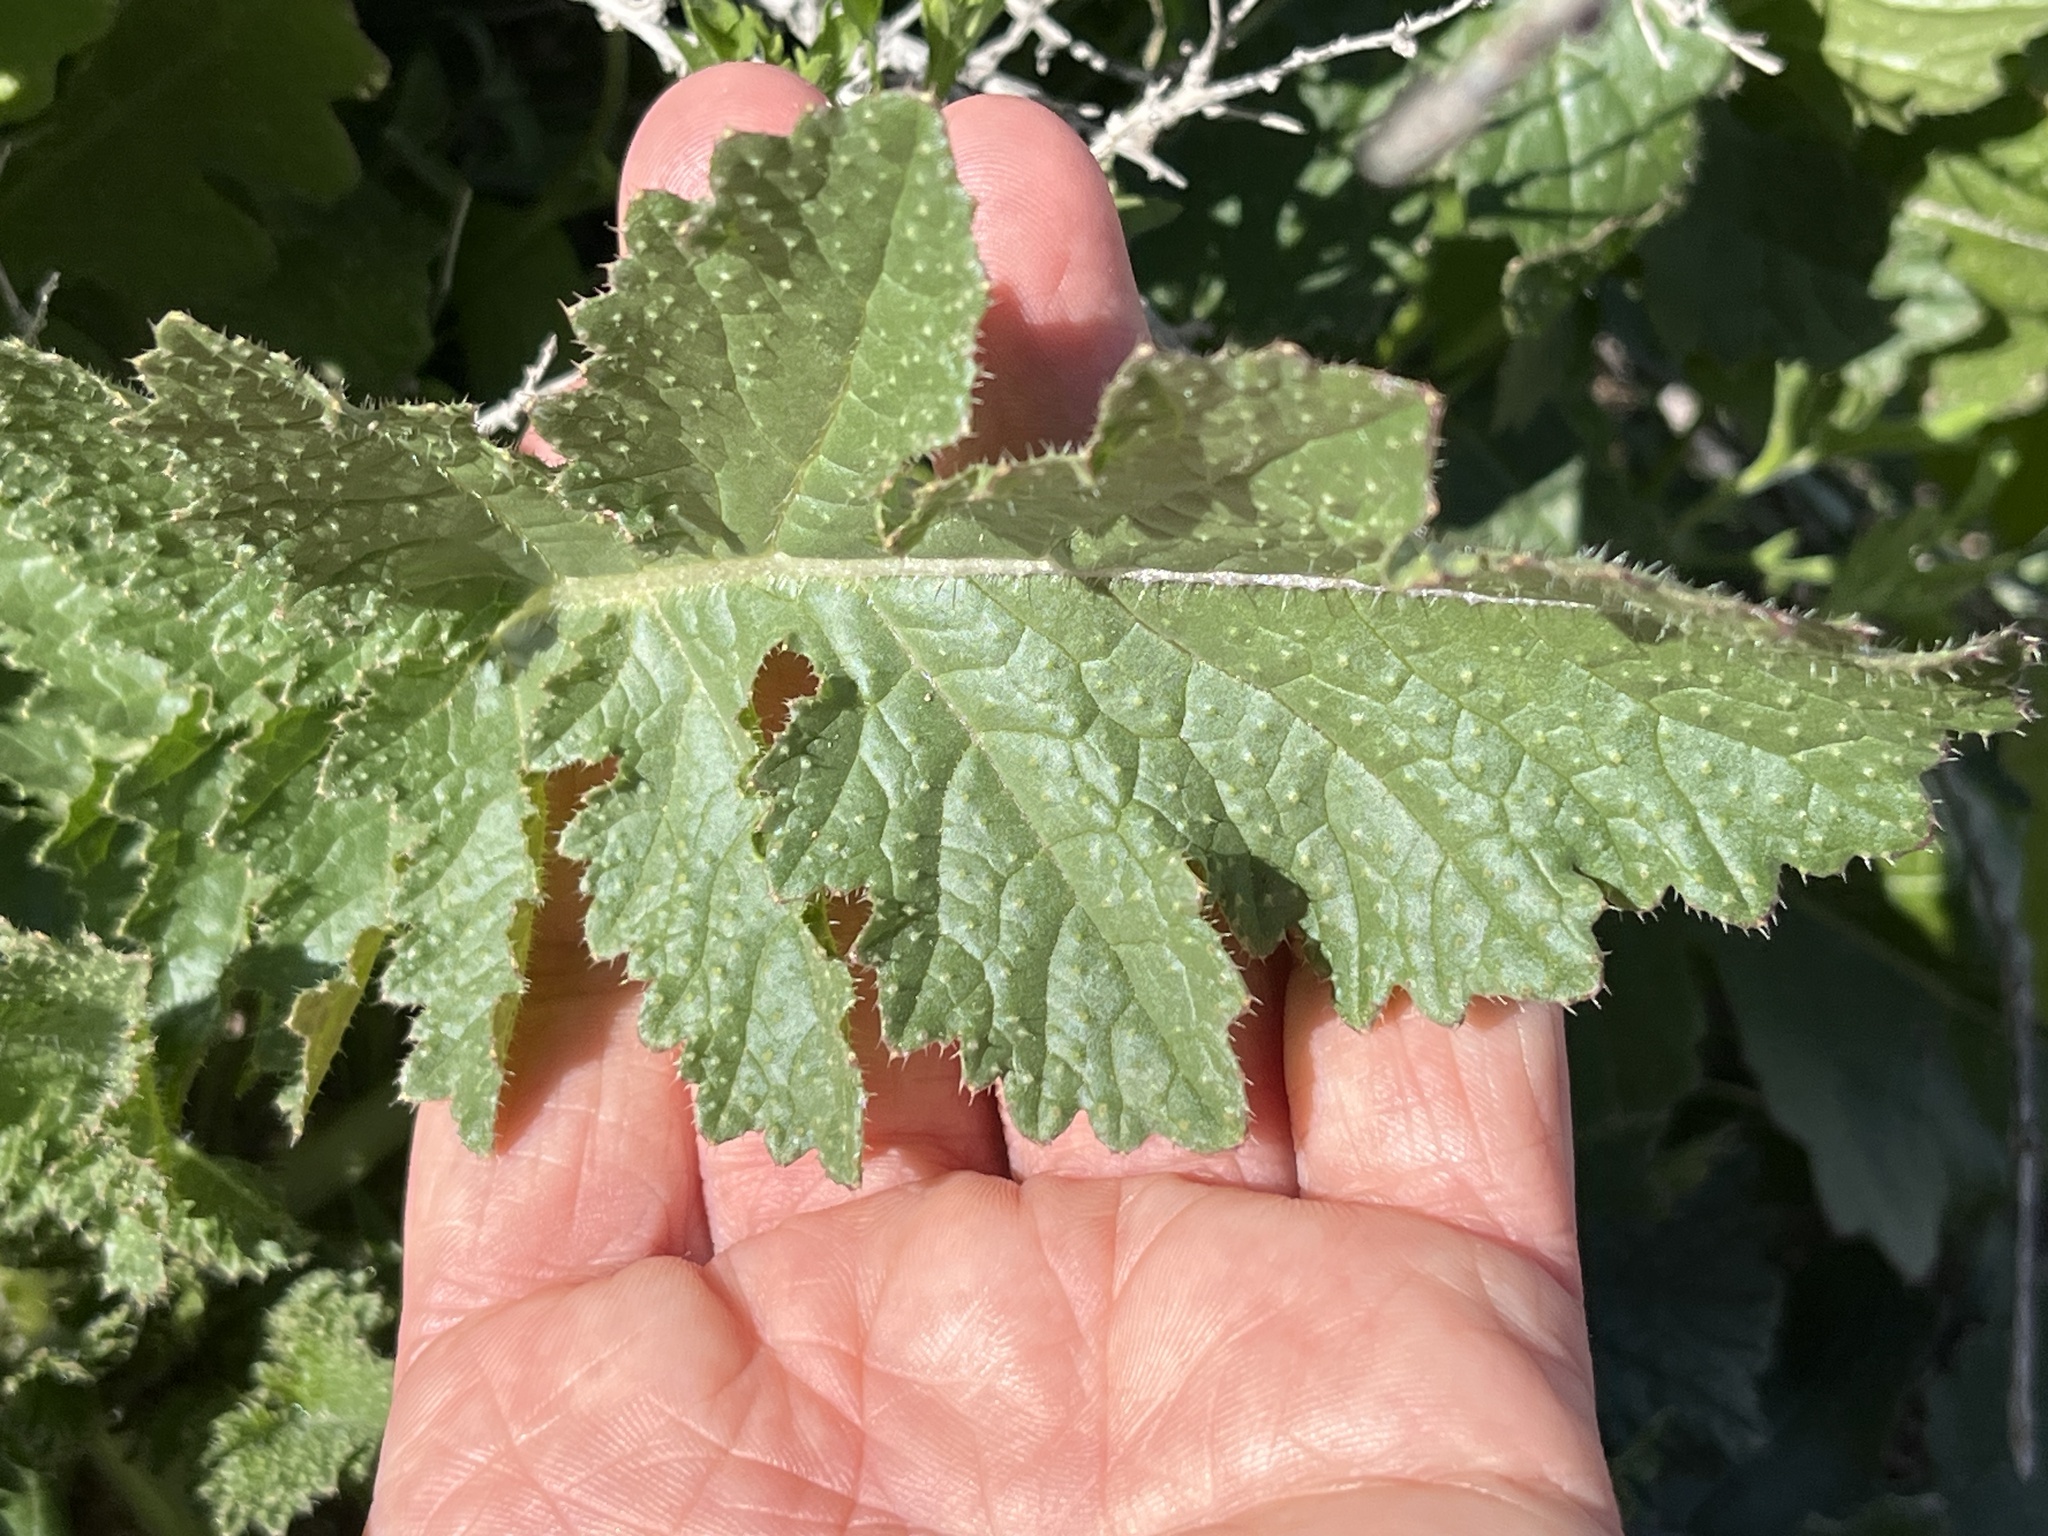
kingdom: Plantae
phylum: Tracheophyta
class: Magnoliopsida
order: Brassicales
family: Brassicaceae
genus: Brassica
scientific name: Brassica tournefortii
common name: Pale cabbage
